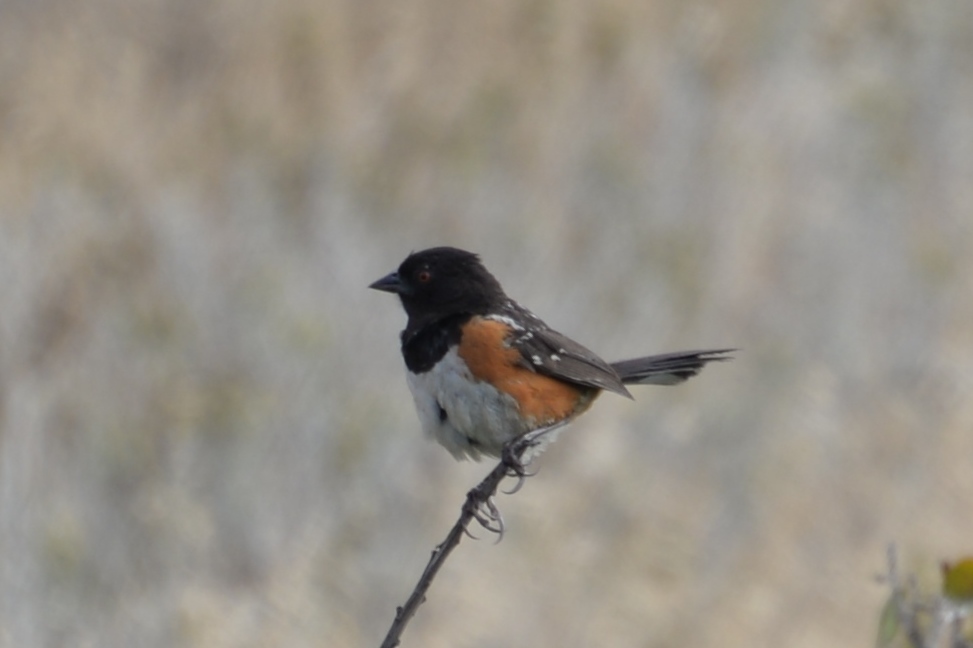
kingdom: Animalia
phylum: Chordata
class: Aves
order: Passeriformes
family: Passerellidae
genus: Pipilo
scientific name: Pipilo maculatus
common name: Spotted towhee
